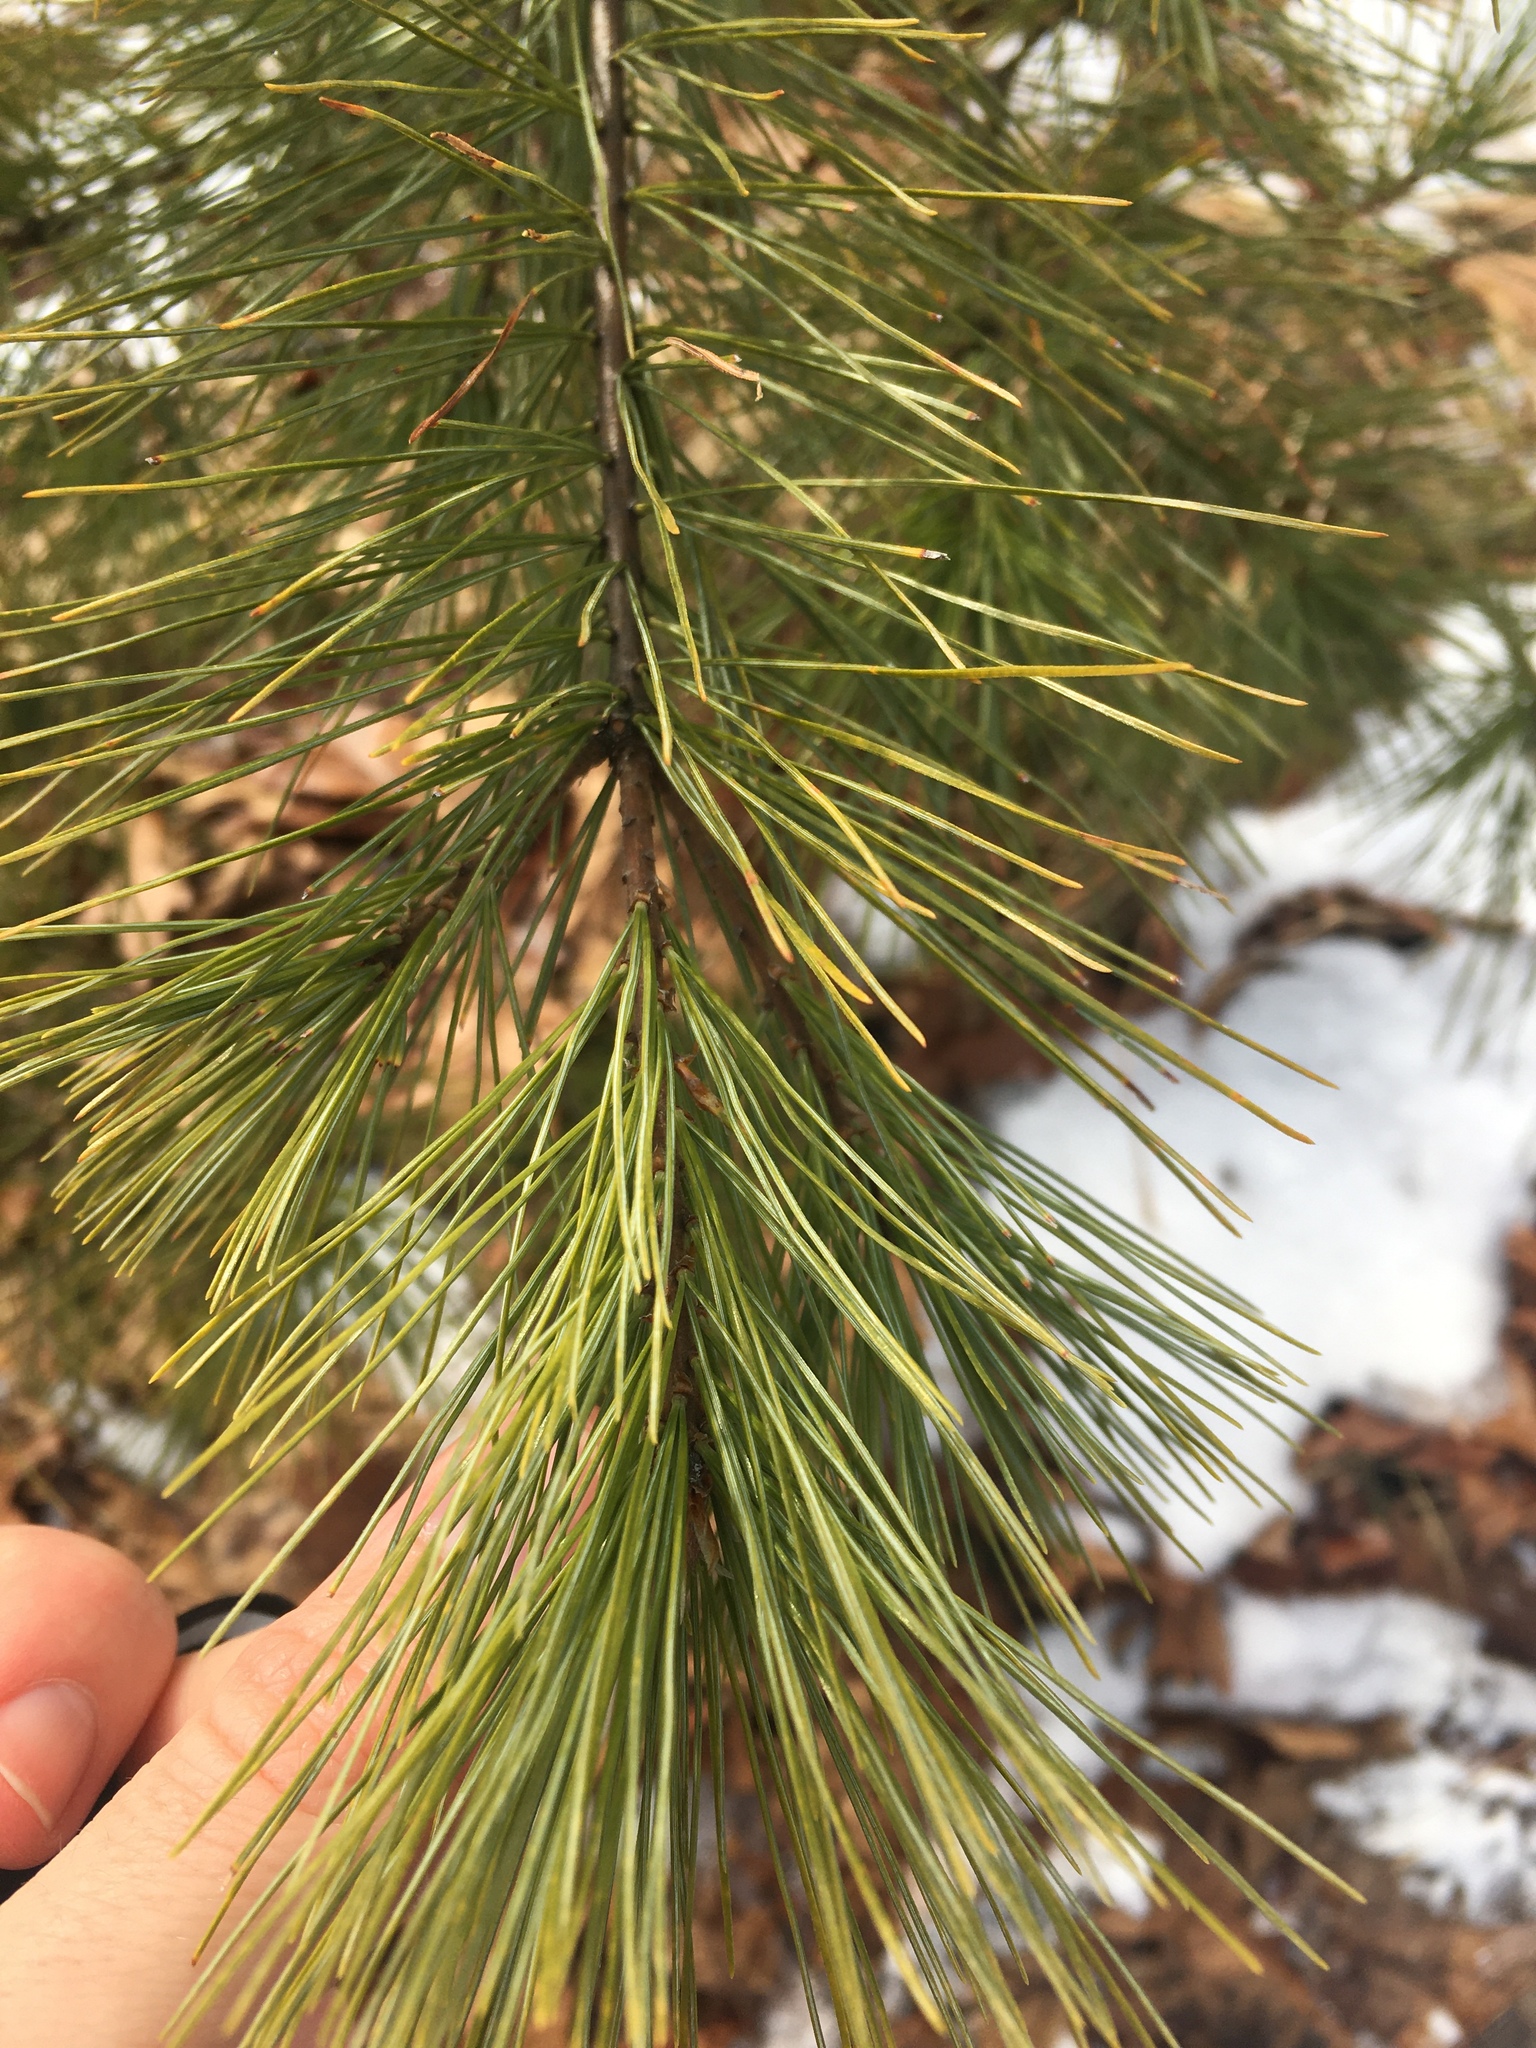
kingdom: Plantae
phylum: Tracheophyta
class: Pinopsida
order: Pinales
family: Pinaceae
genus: Pinus
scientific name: Pinus strobus
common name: Weymouth pine
